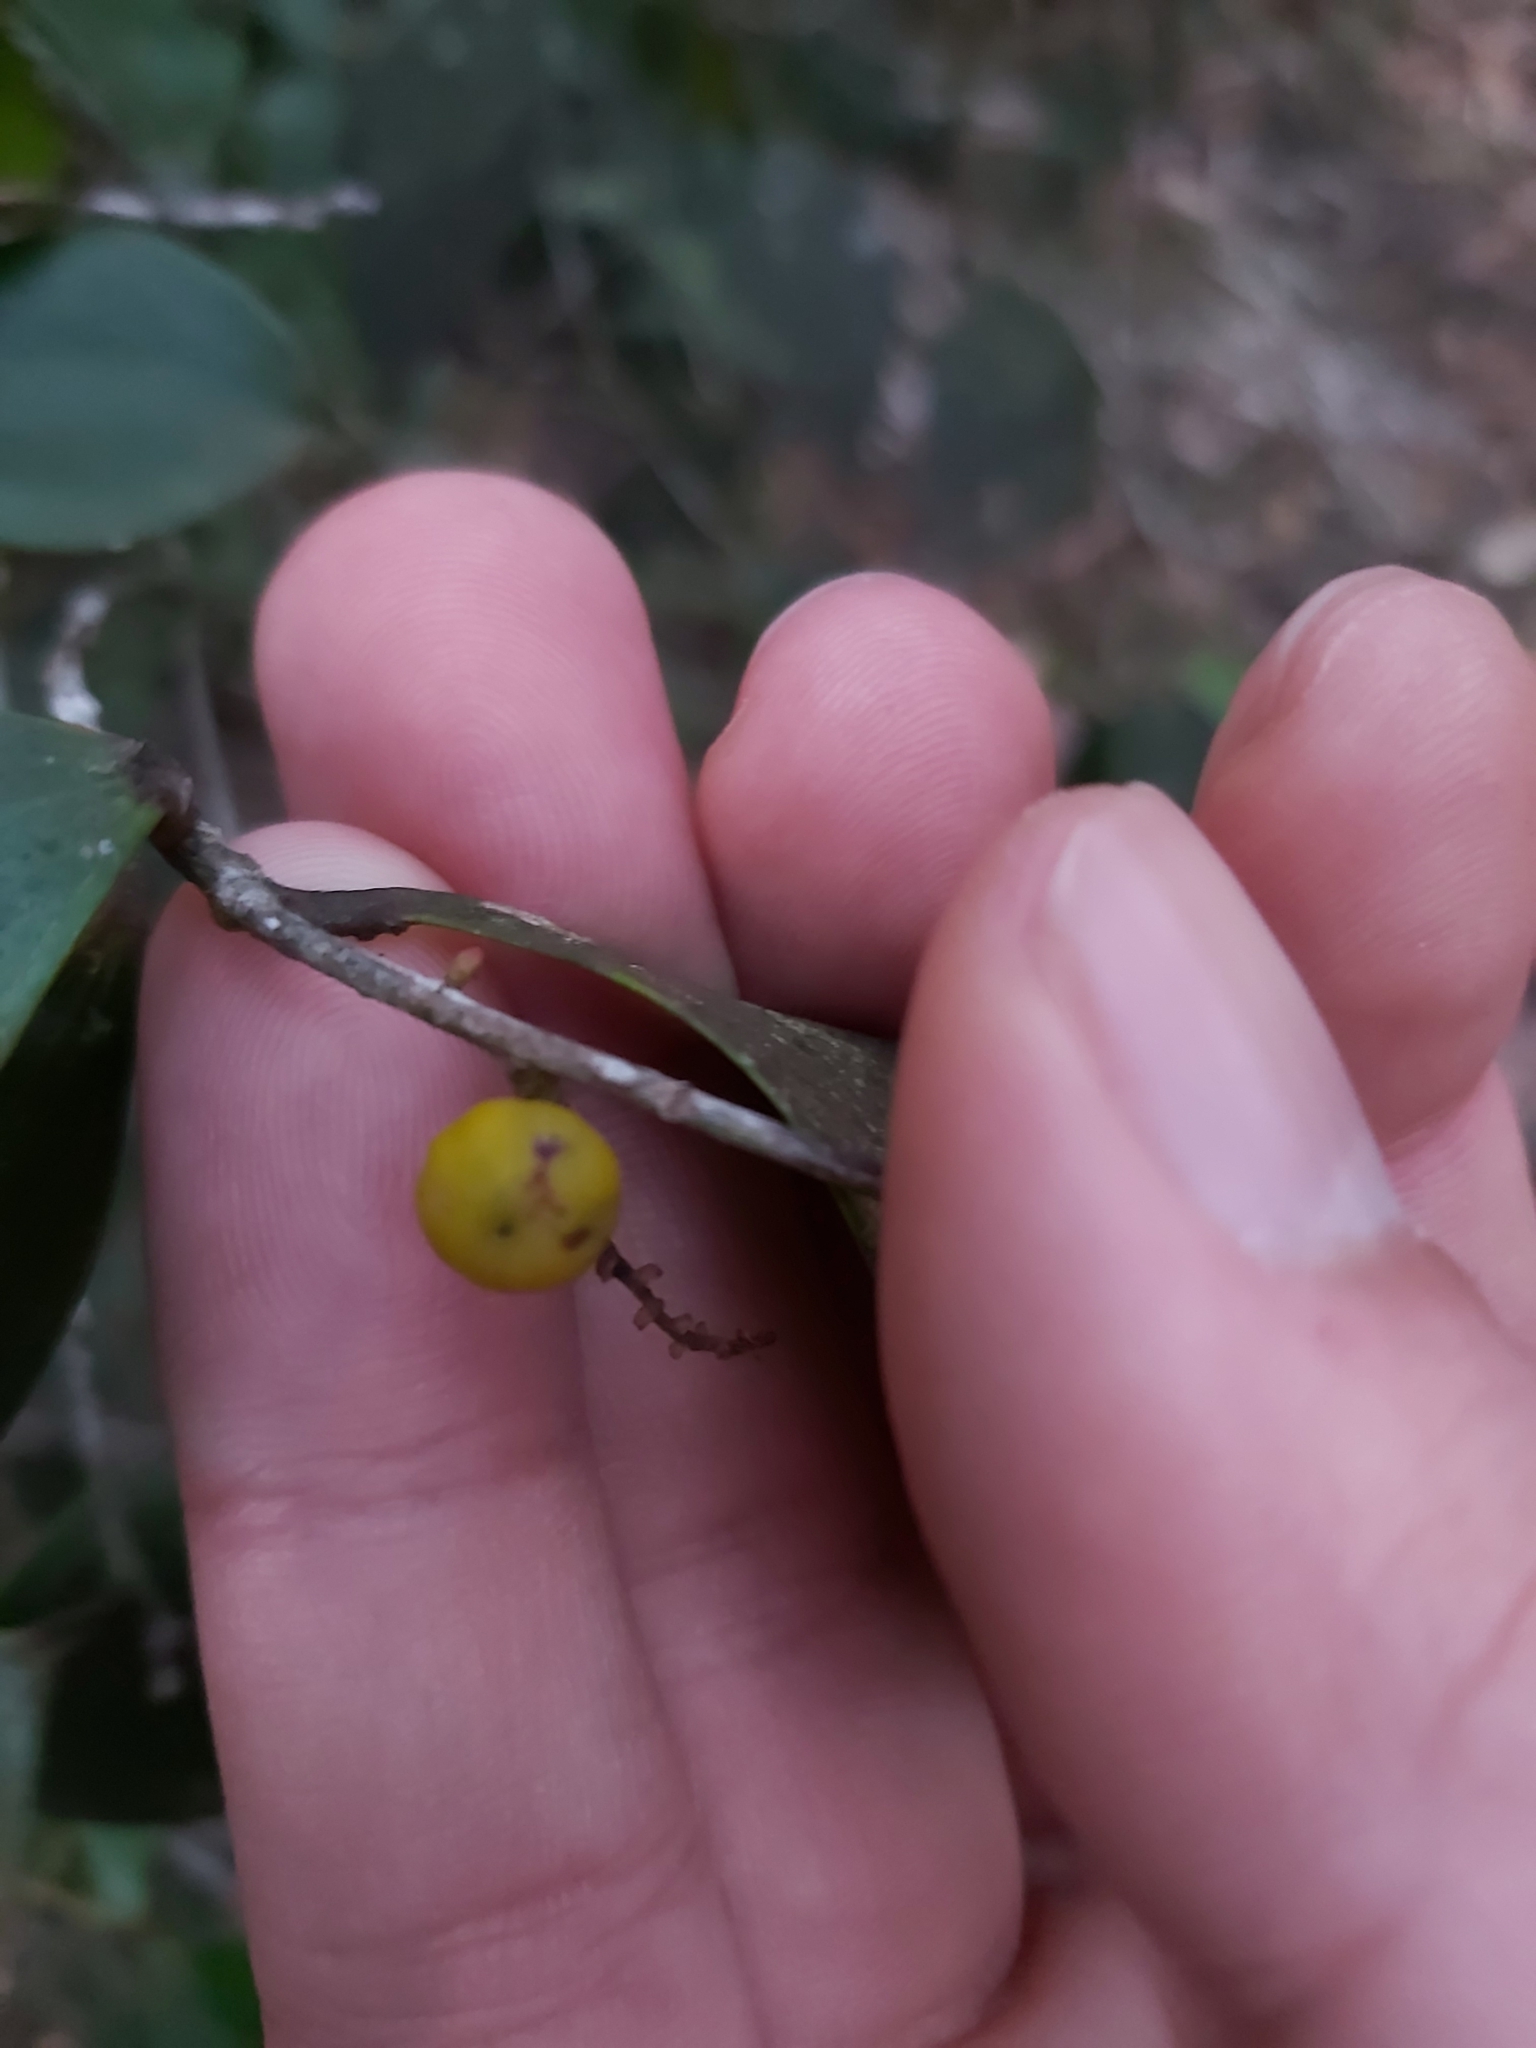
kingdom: Plantae
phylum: Tracheophyta
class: Magnoliopsida
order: Ericales
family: Ericaceae
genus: Trochocarpa
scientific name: Trochocarpa laurina
